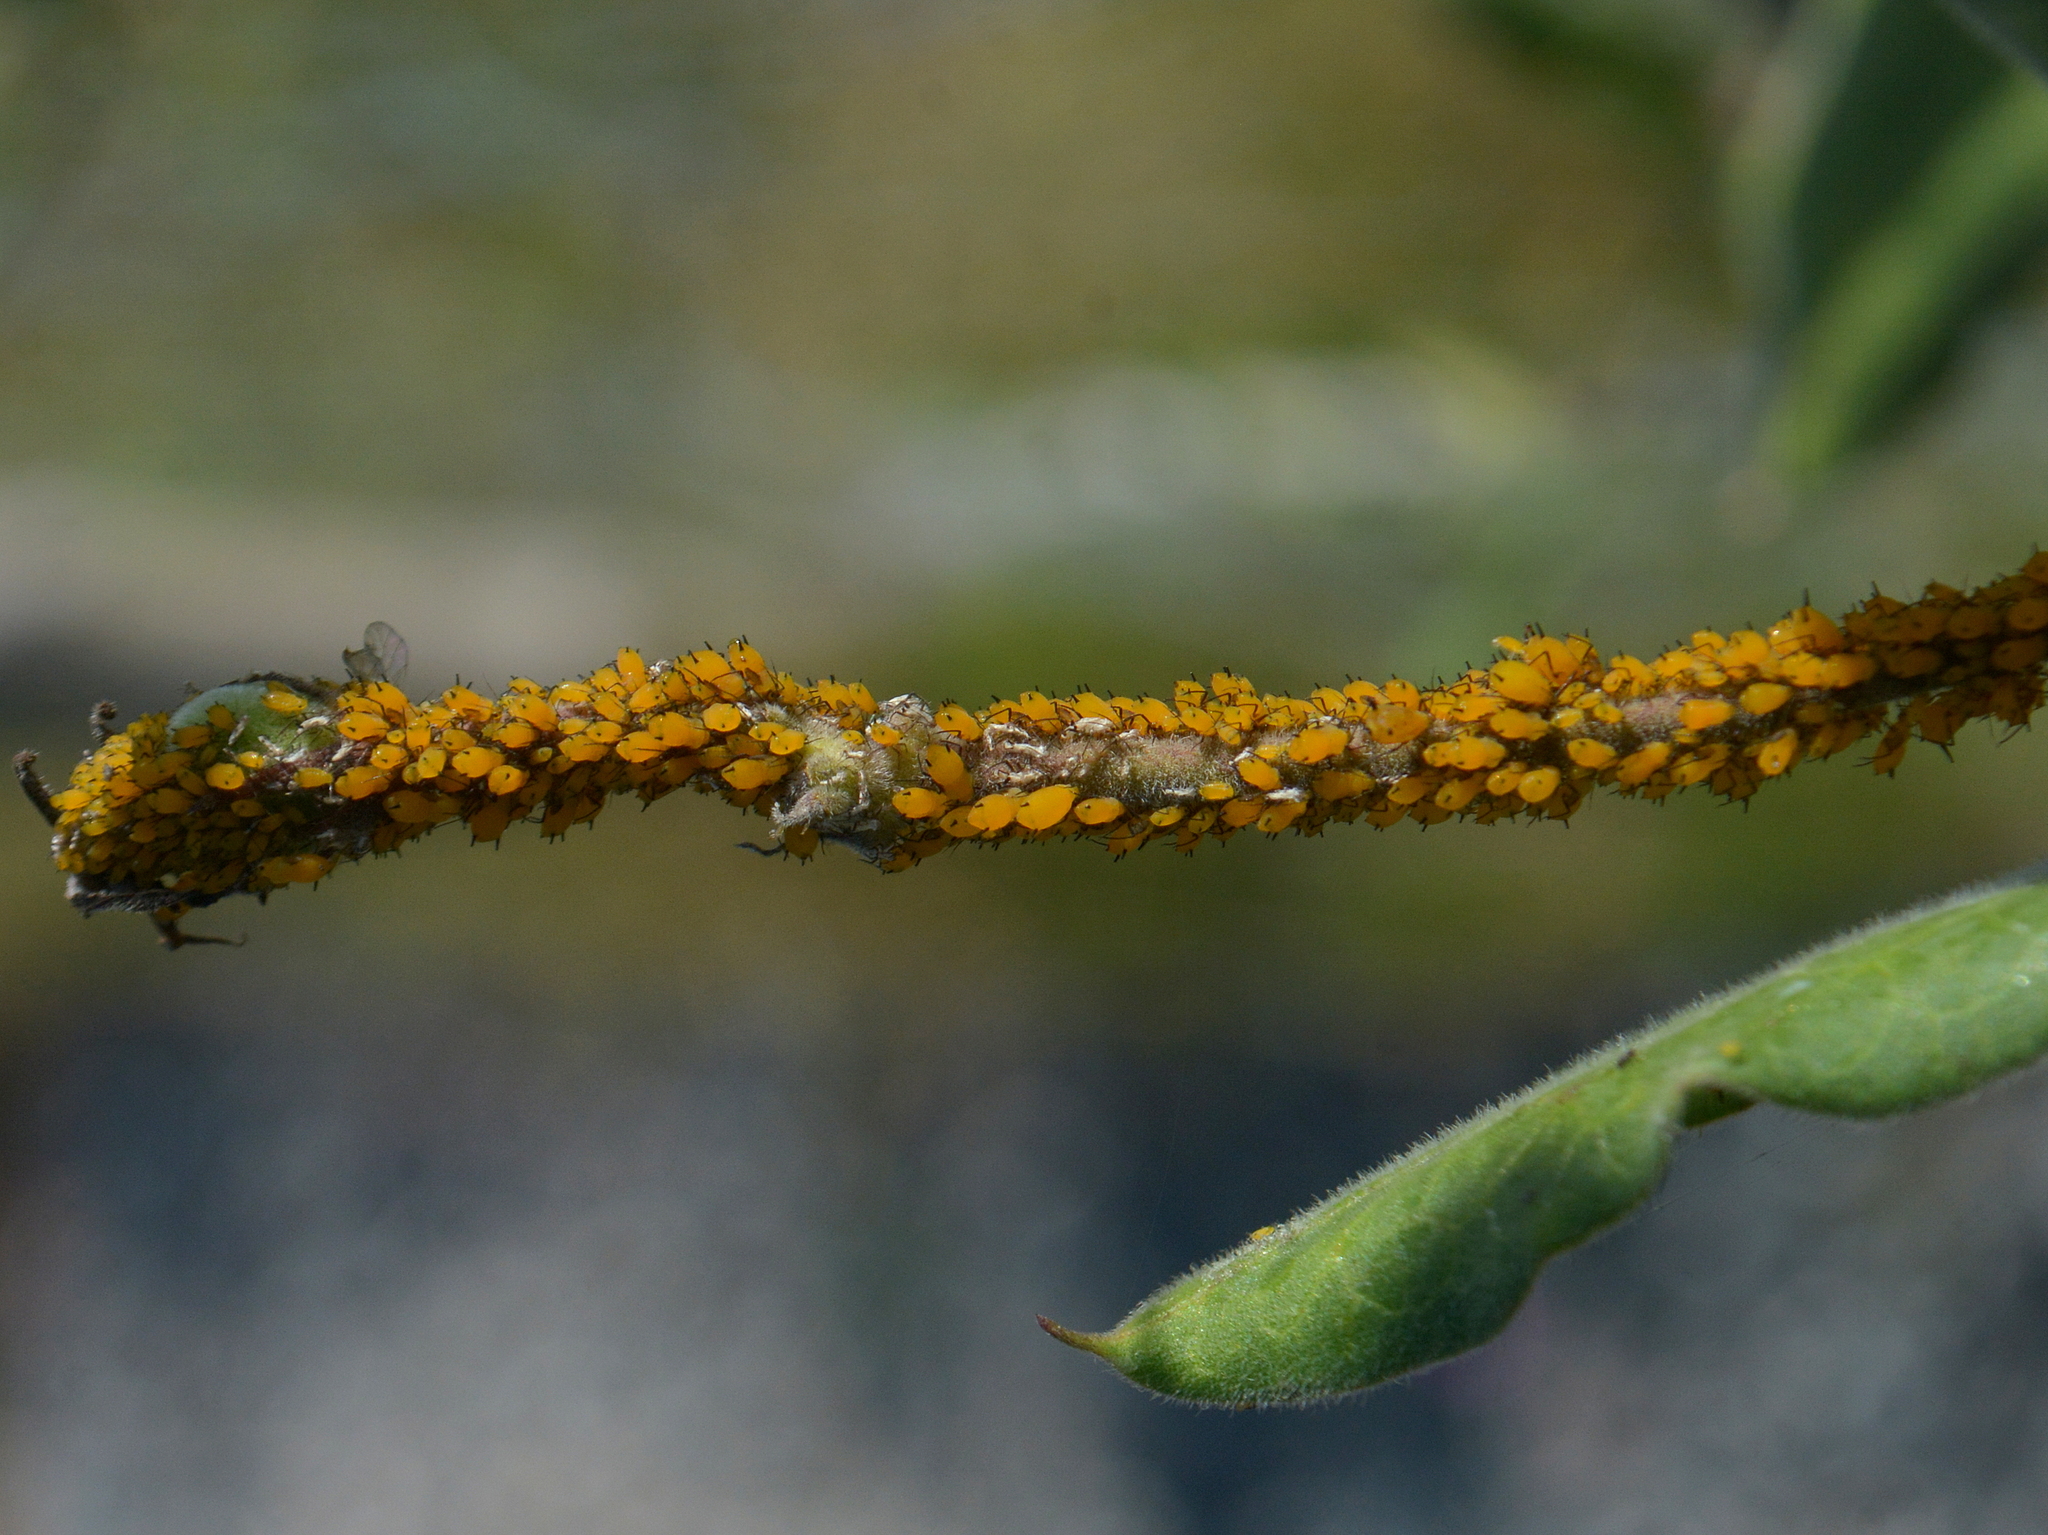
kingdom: Animalia
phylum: Arthropoda
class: Insecta
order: Hemiptera
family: Aphididae
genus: Aphis
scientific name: Aphis nerii
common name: Oleander aphid
